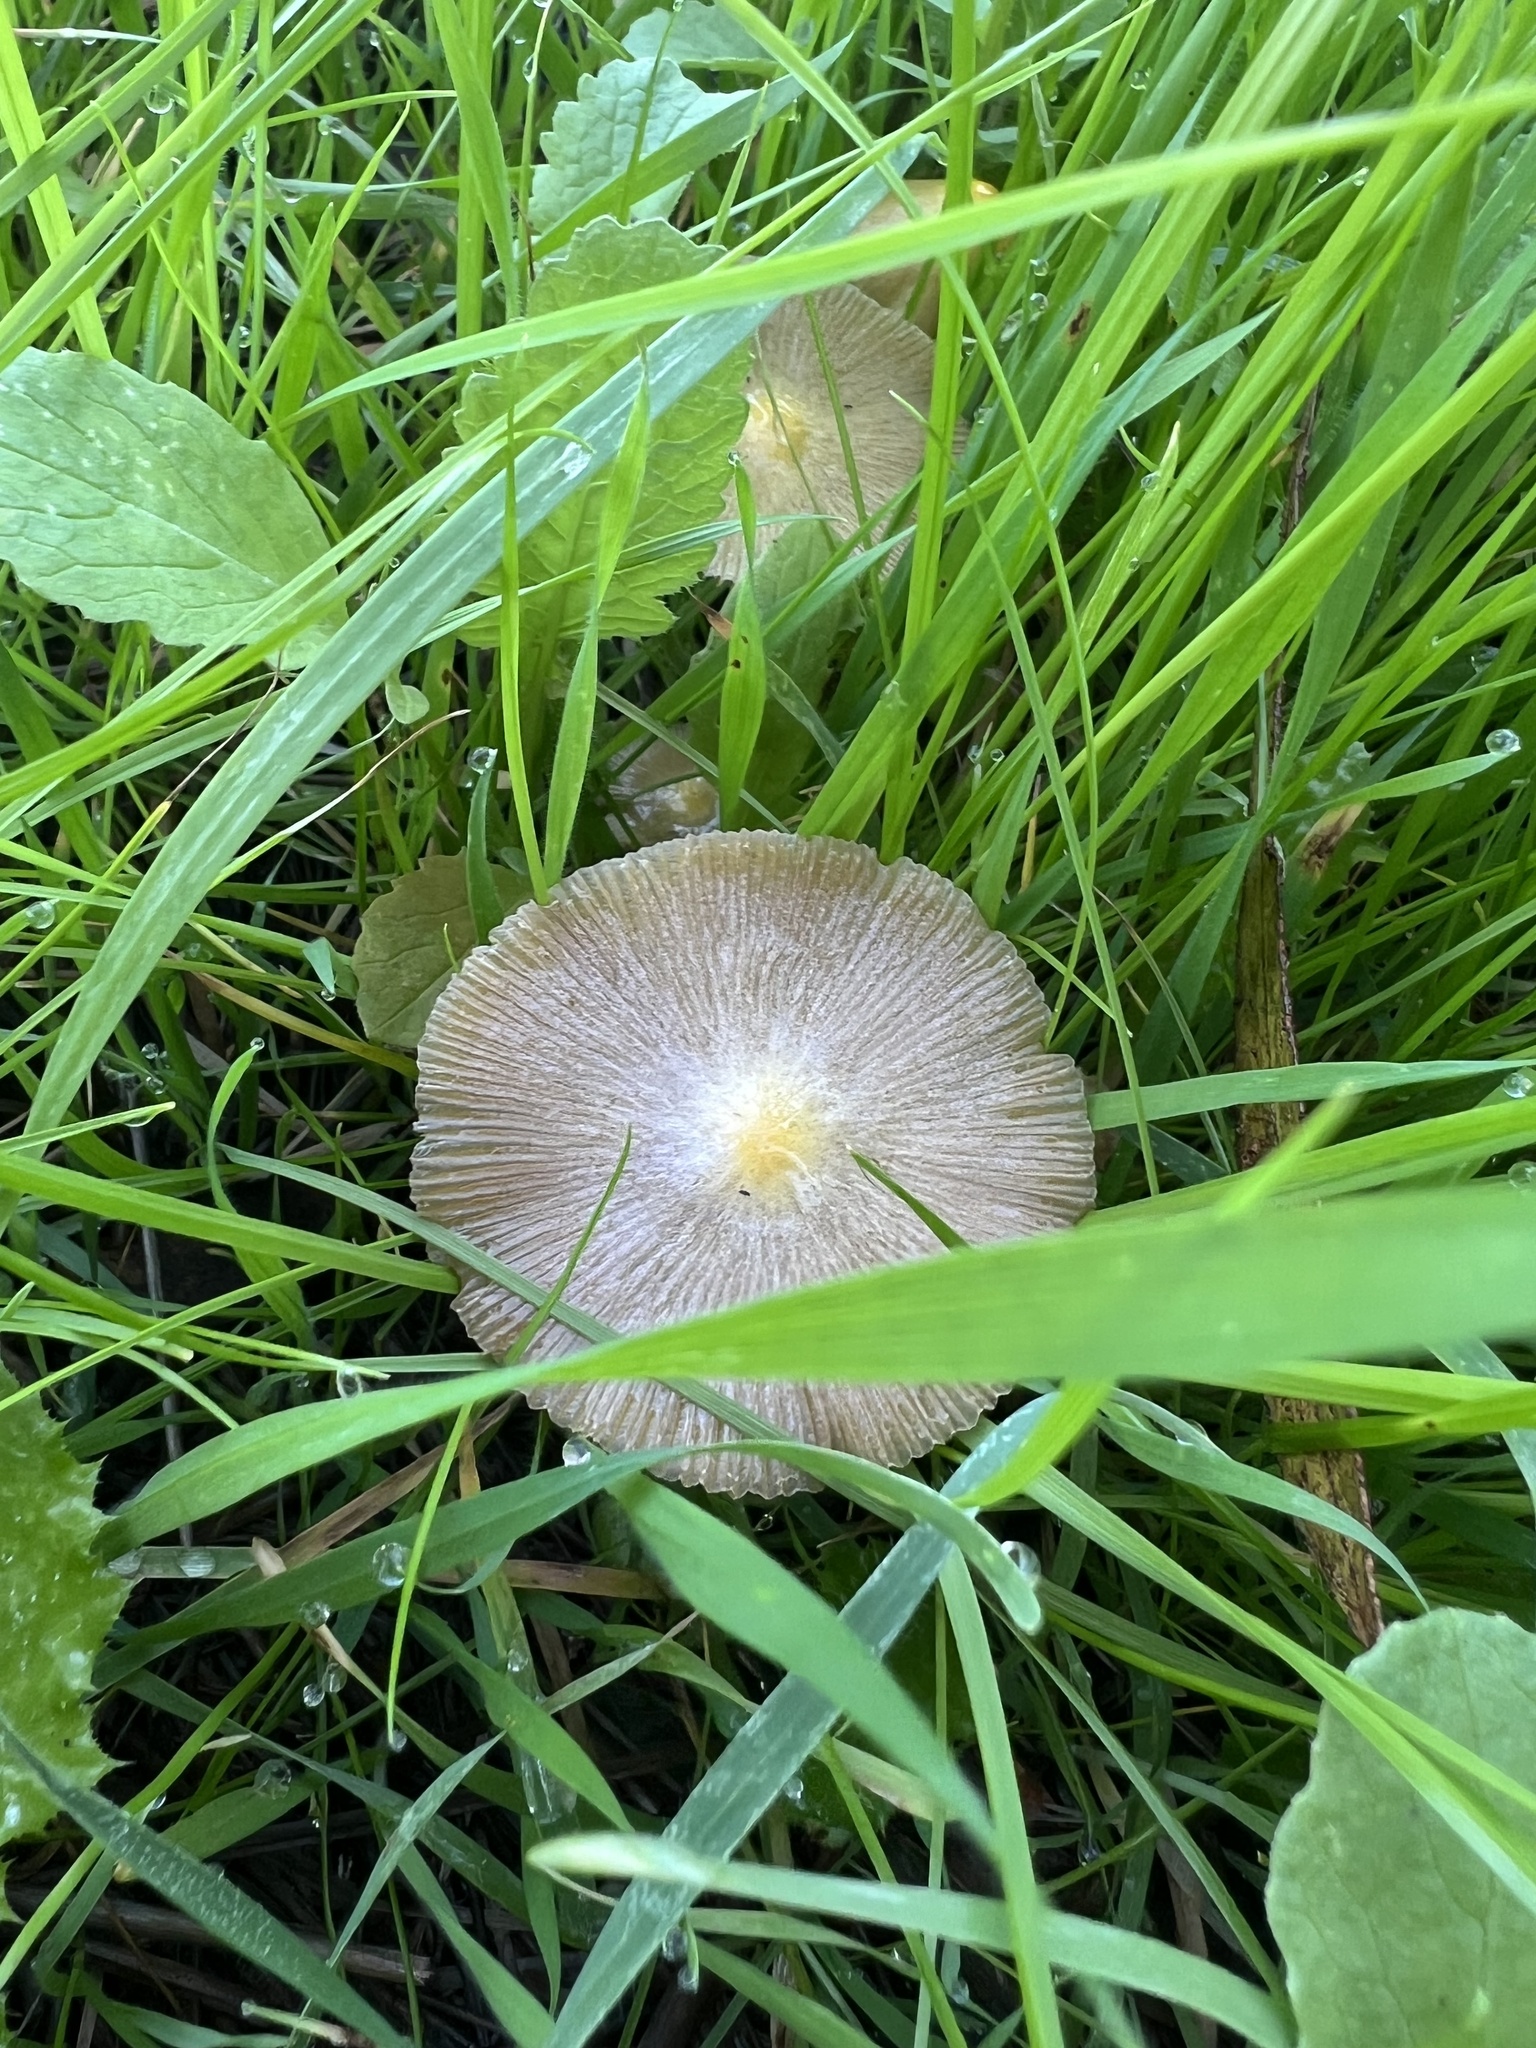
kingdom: Fungi
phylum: Basidiomycota
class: Agaricomycetes
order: Agaricales
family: Bolbitiaceae
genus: Bolbitius
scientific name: Bolbitius titubans
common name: Yellow fieldcap
